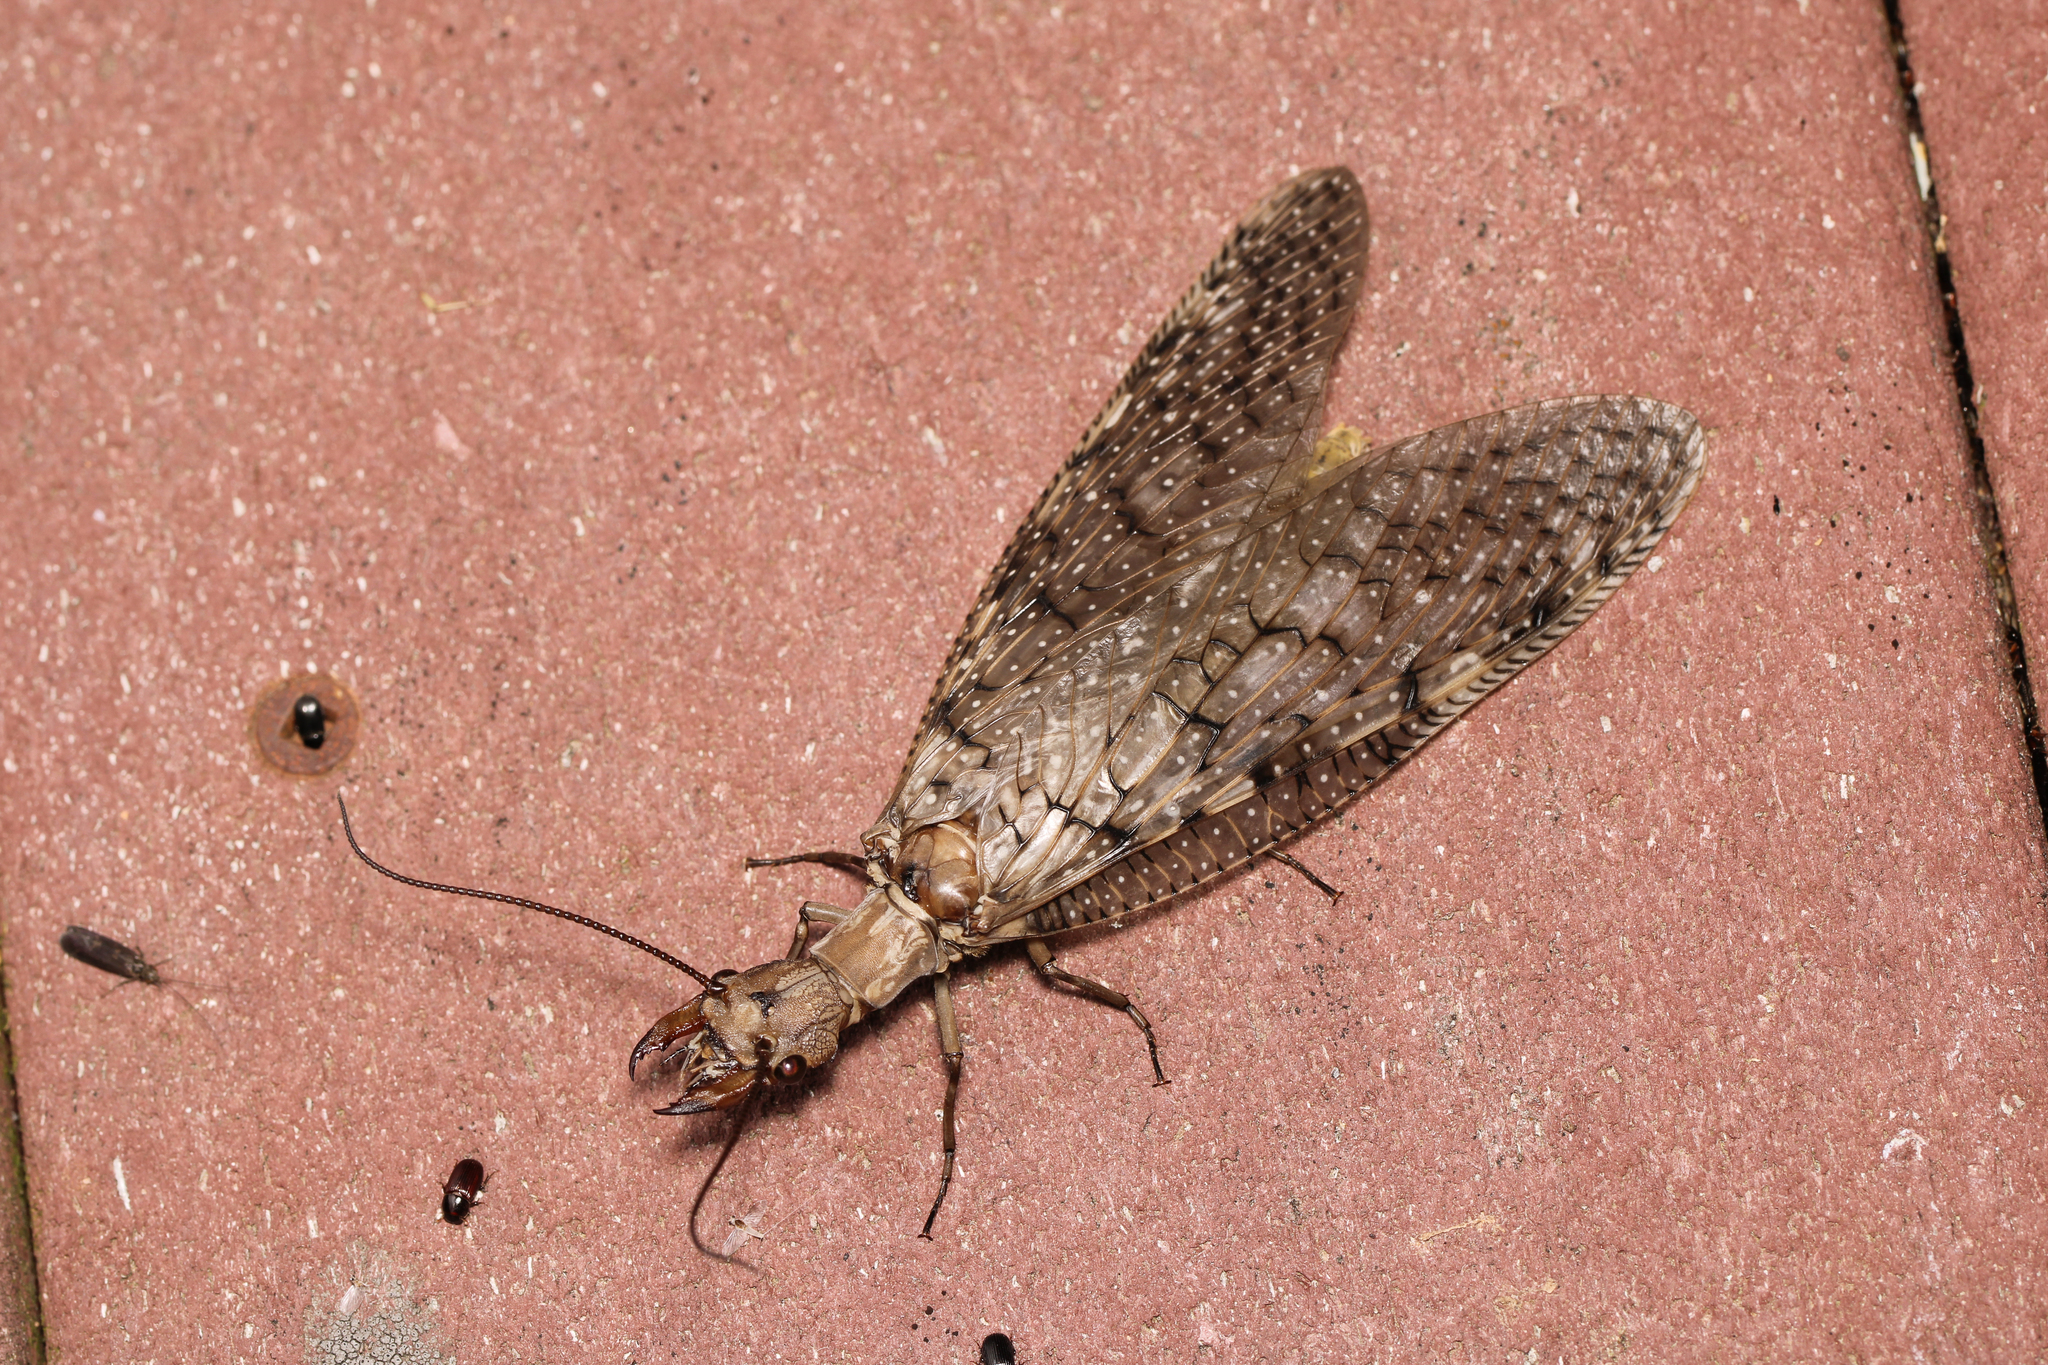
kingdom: Animalia
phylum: Arthropoda
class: Insecta
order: Megaloptera
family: Corydalidae
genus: Corydalus
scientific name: Corydalus cornutus
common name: Dobsonfly
